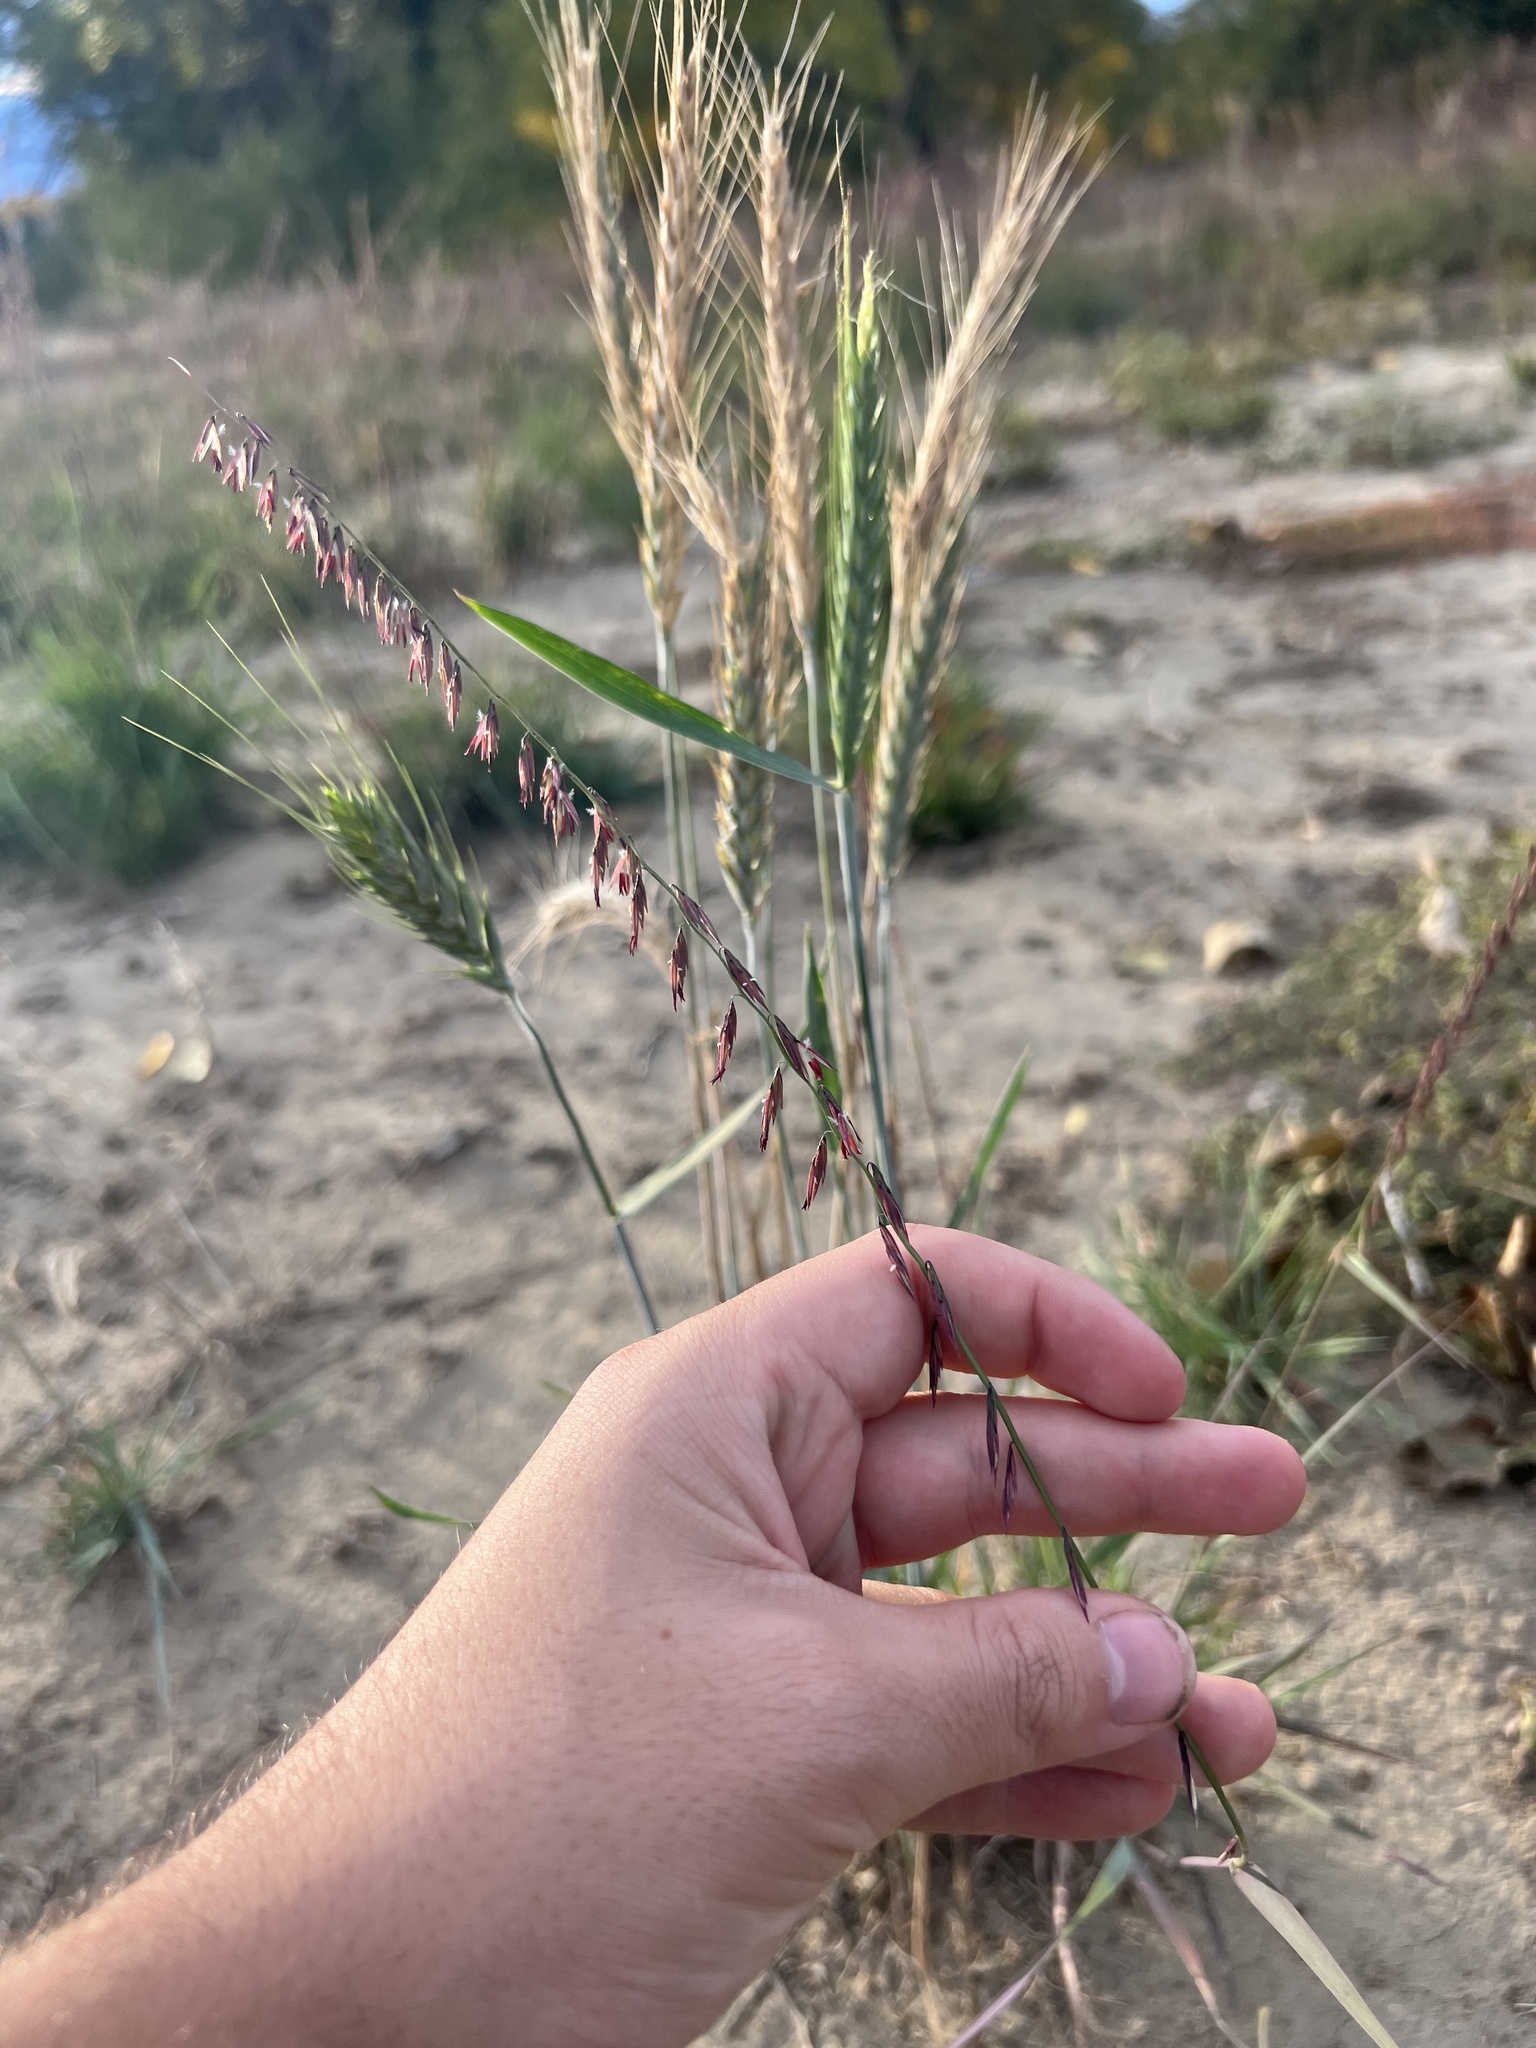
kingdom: Plantae
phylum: Tracheophyta
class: Liliopsida
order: Poales
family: Poaceae
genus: Bouteloua
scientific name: Bouteloua curtipendula
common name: Side-oats grama
